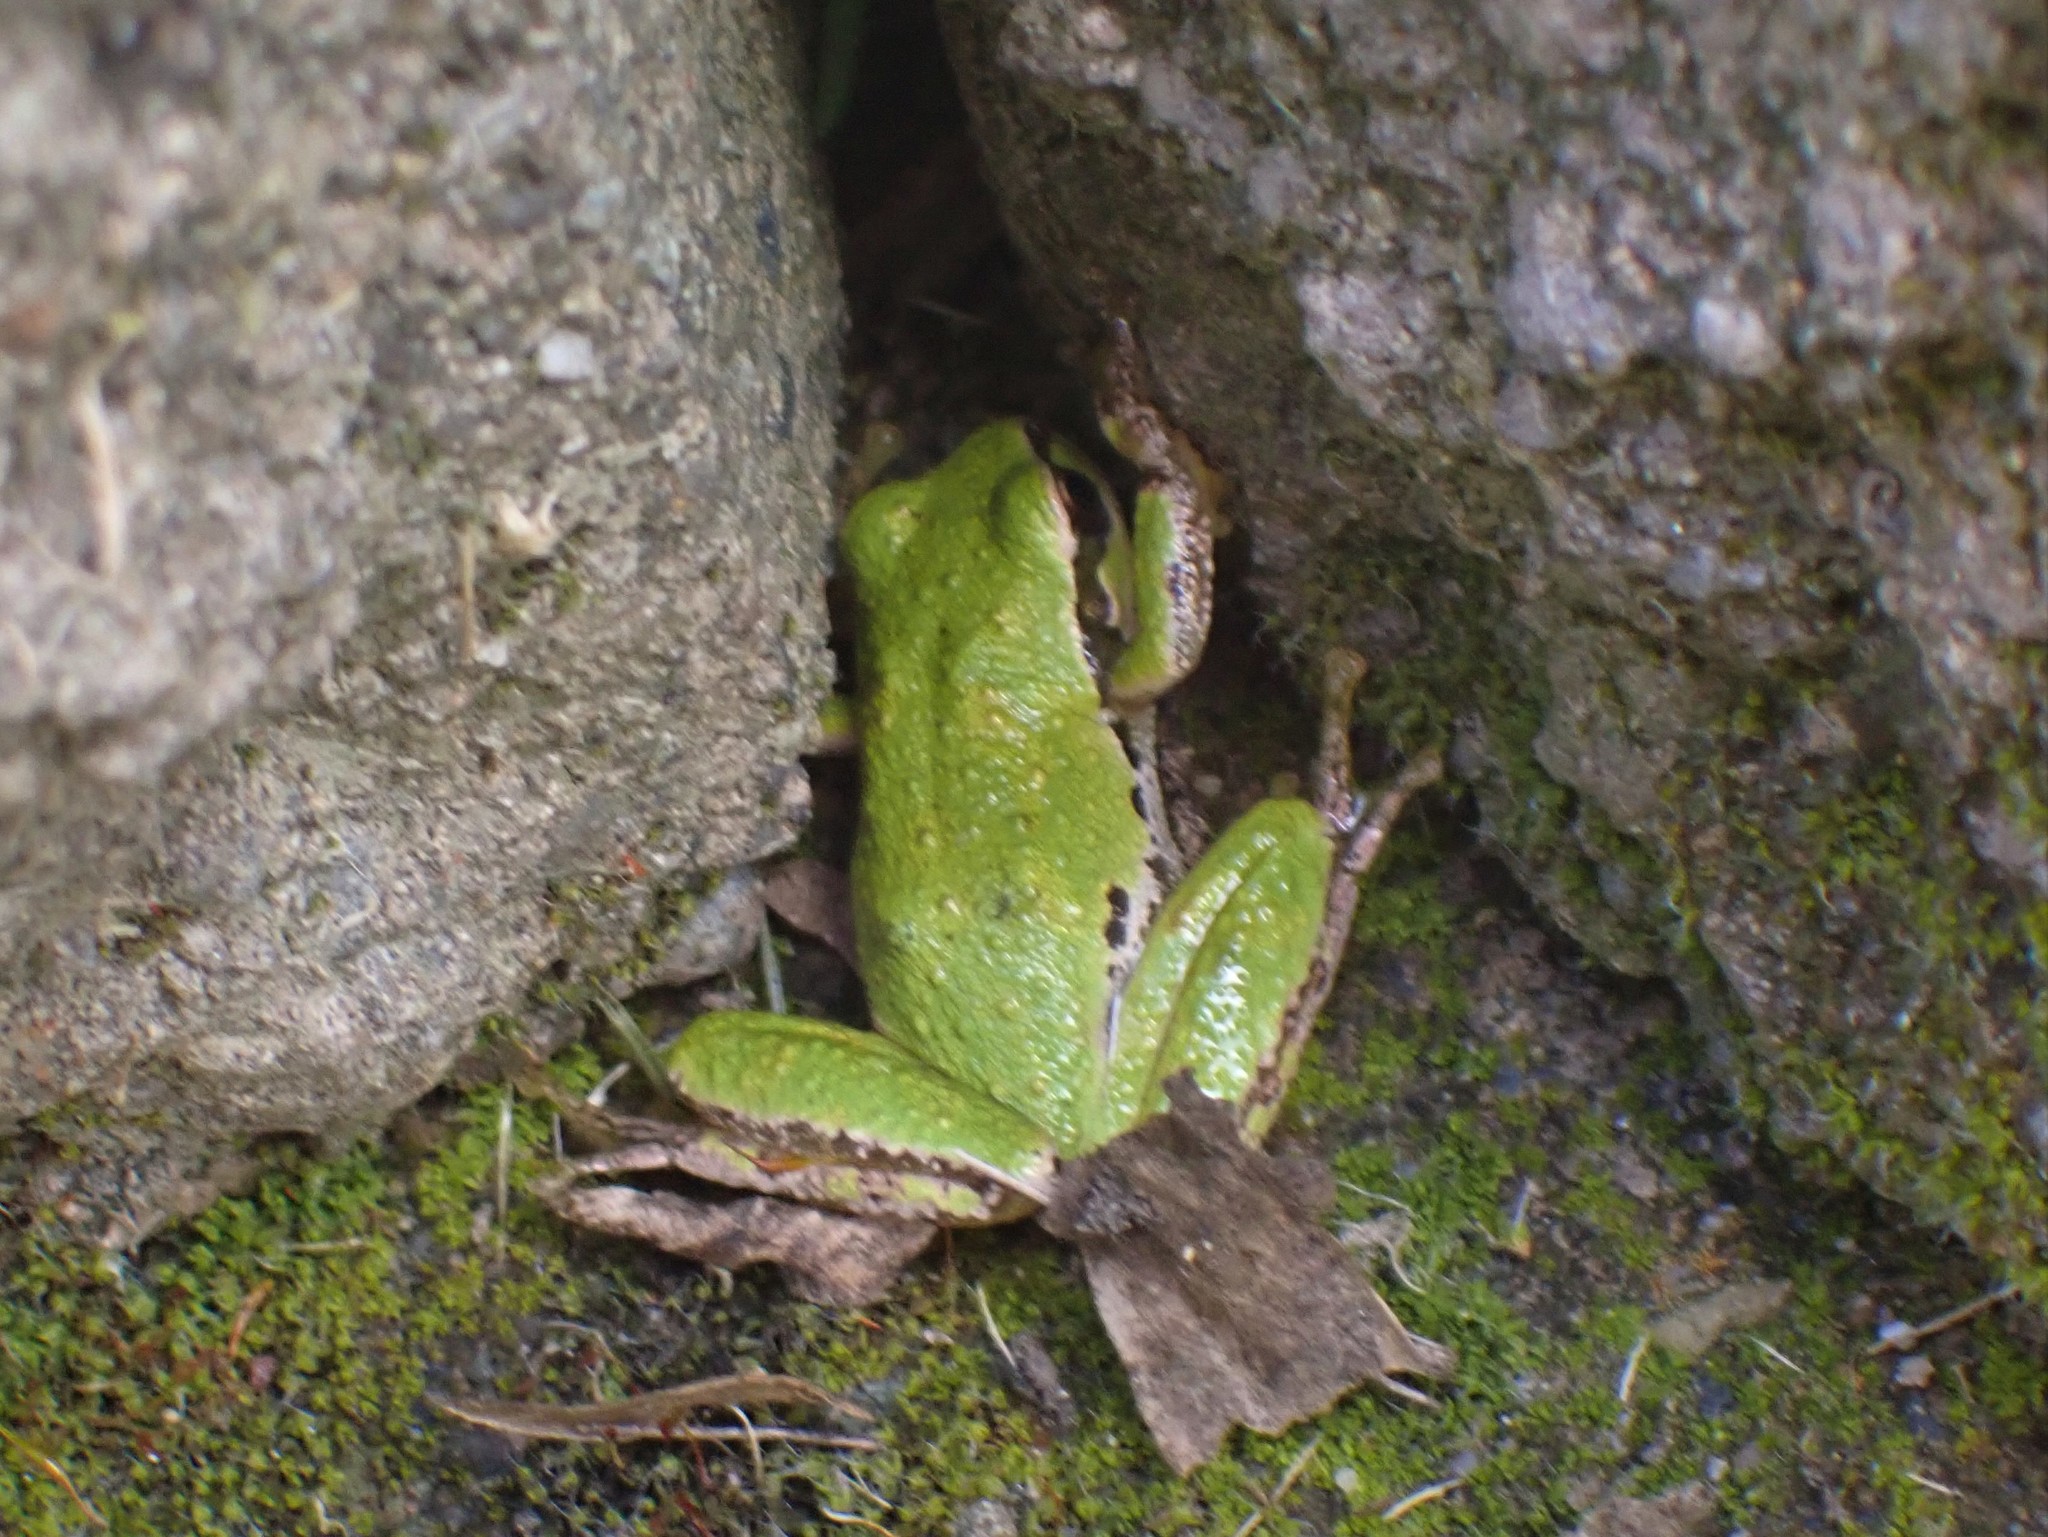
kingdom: Animalia
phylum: Chordata
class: Amphibia
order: Anura
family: Hylidae
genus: Pseudacris
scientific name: Pseudacris regilla
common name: Pacific chorus frog
